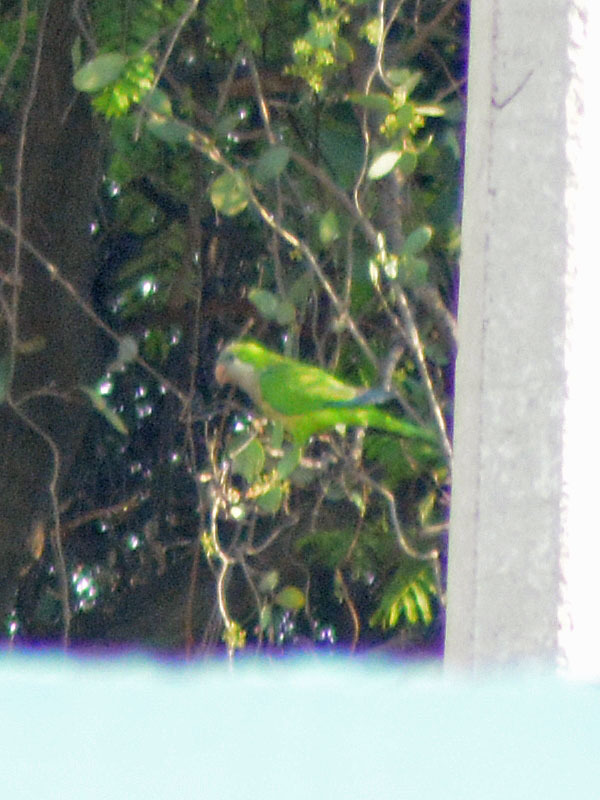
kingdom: Animalia
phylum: Chordata
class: Aves
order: Psittaciformes
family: Psittacidae
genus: Myiopsitta
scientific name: Myiopsitta monachus
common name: Monk parakeet
